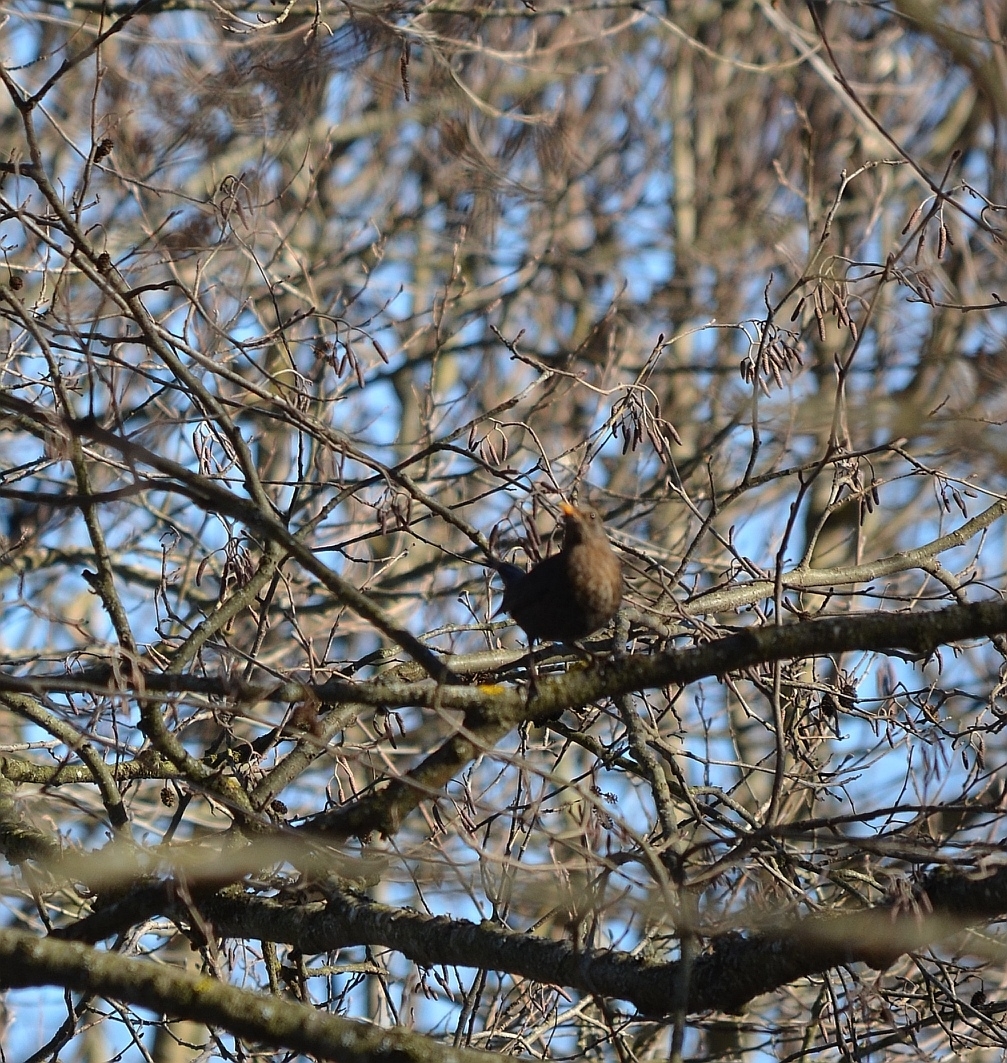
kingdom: Animalia
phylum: Chordata
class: Aves
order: Passeriformes
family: Turdidae
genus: Turdus
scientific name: Turdus merula
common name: Common blackbird
